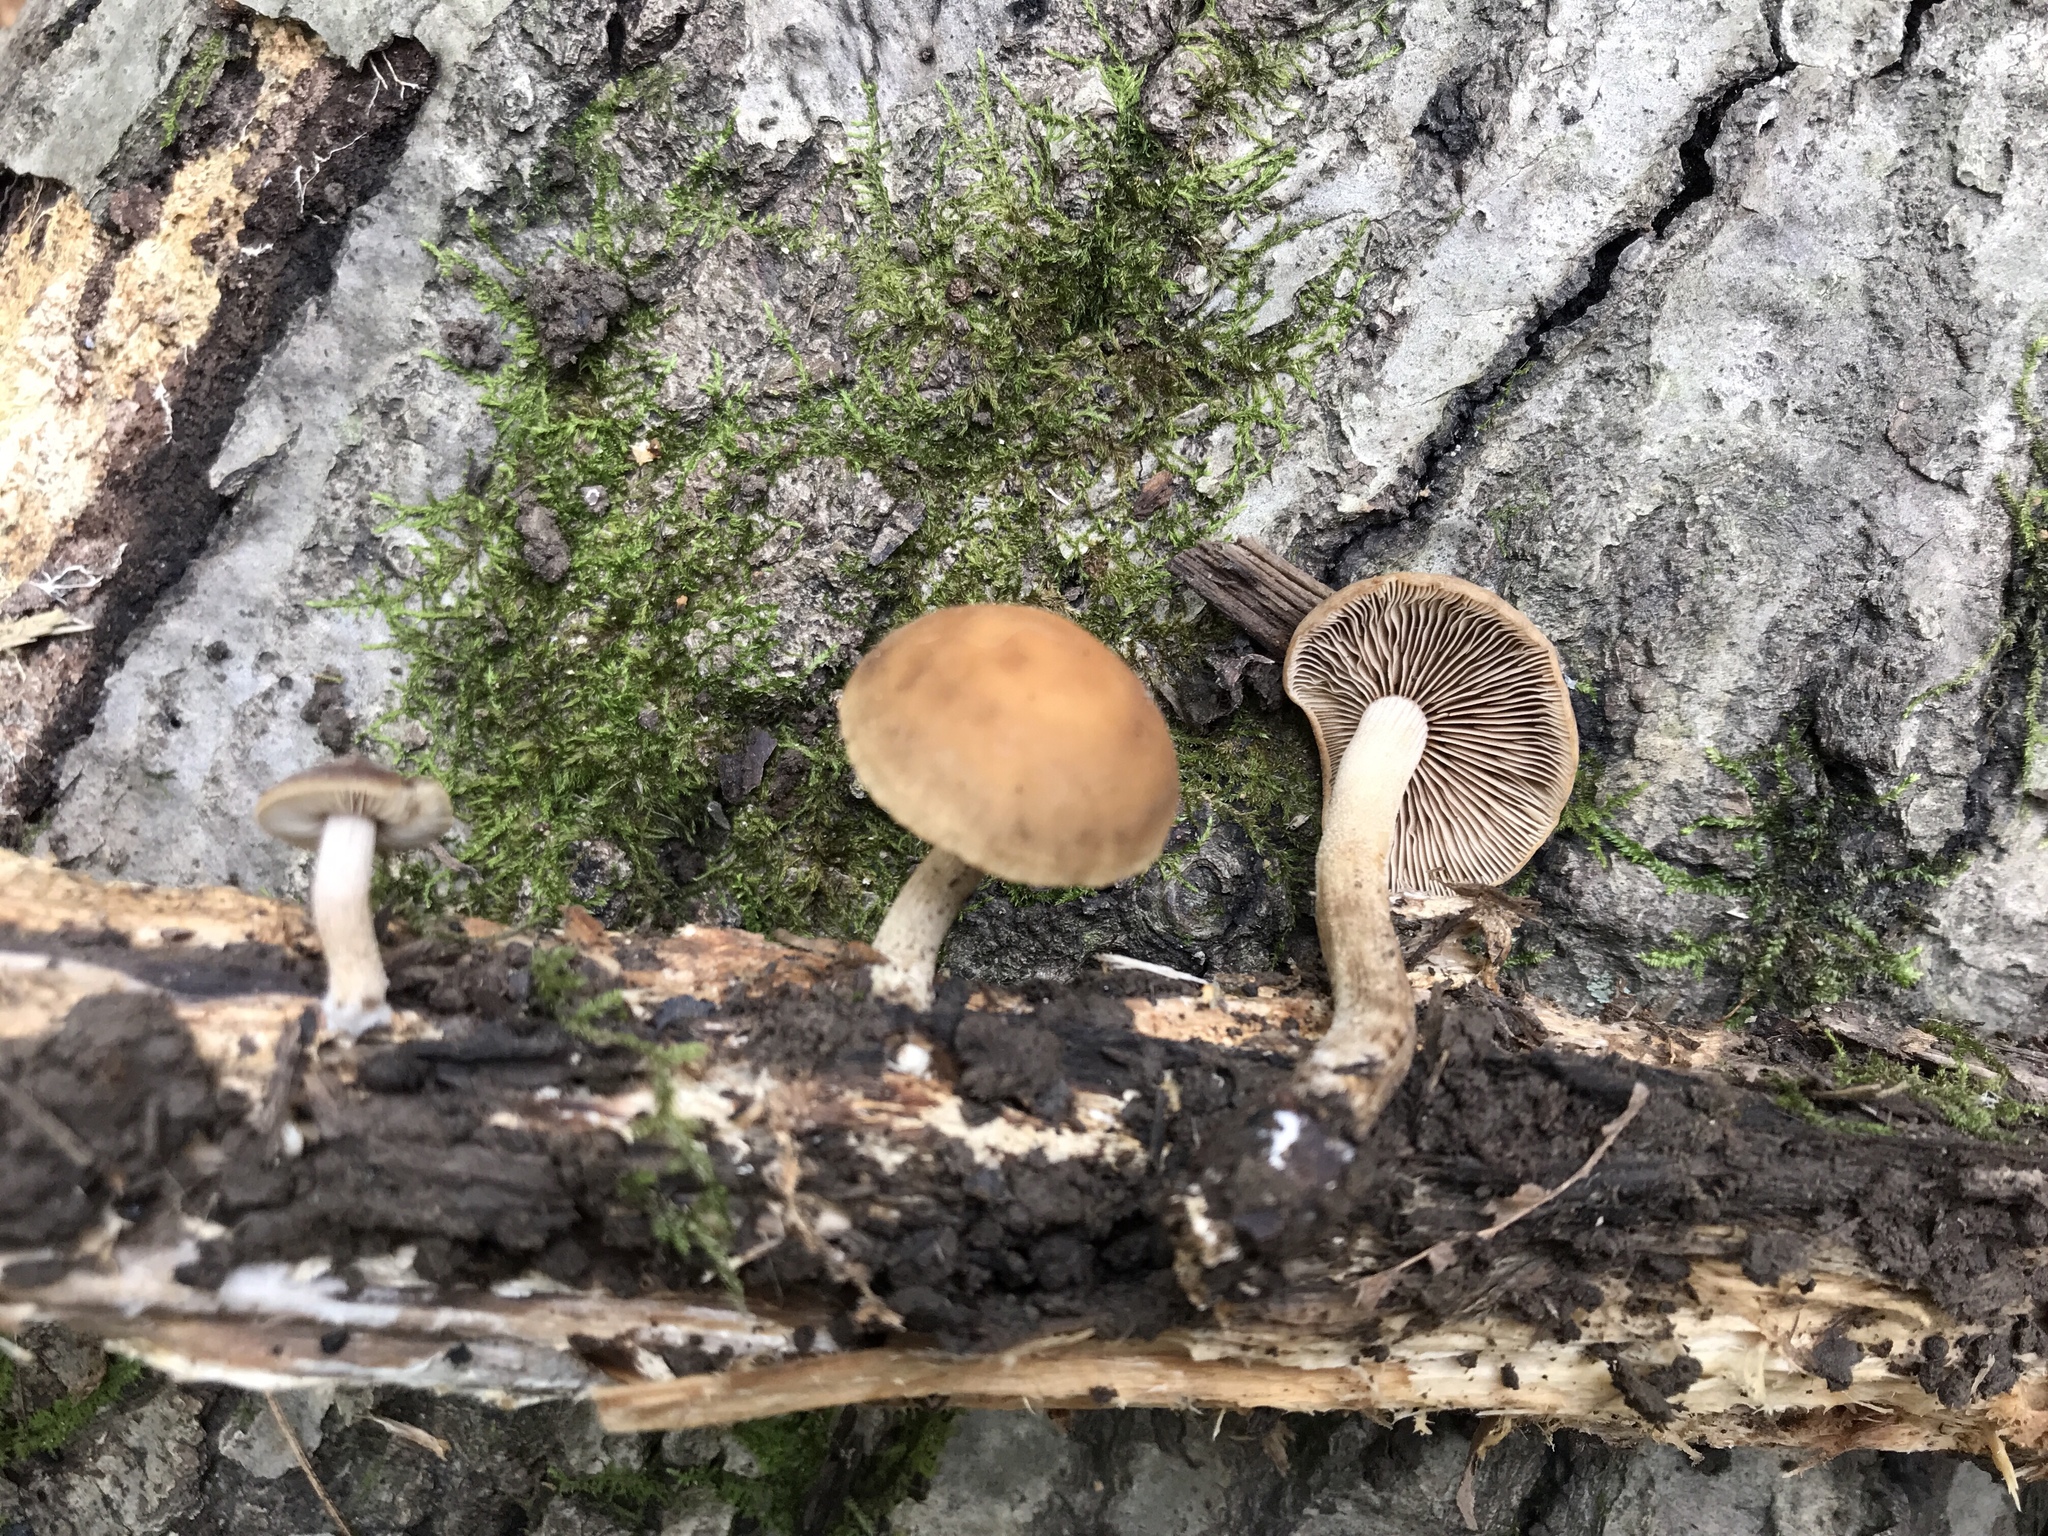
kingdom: Fungi
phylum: Basidiomycota
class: Agaricomycetes
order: Agaricales
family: Strophariaceae
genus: Agrocybe
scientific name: Agrocybe firma
